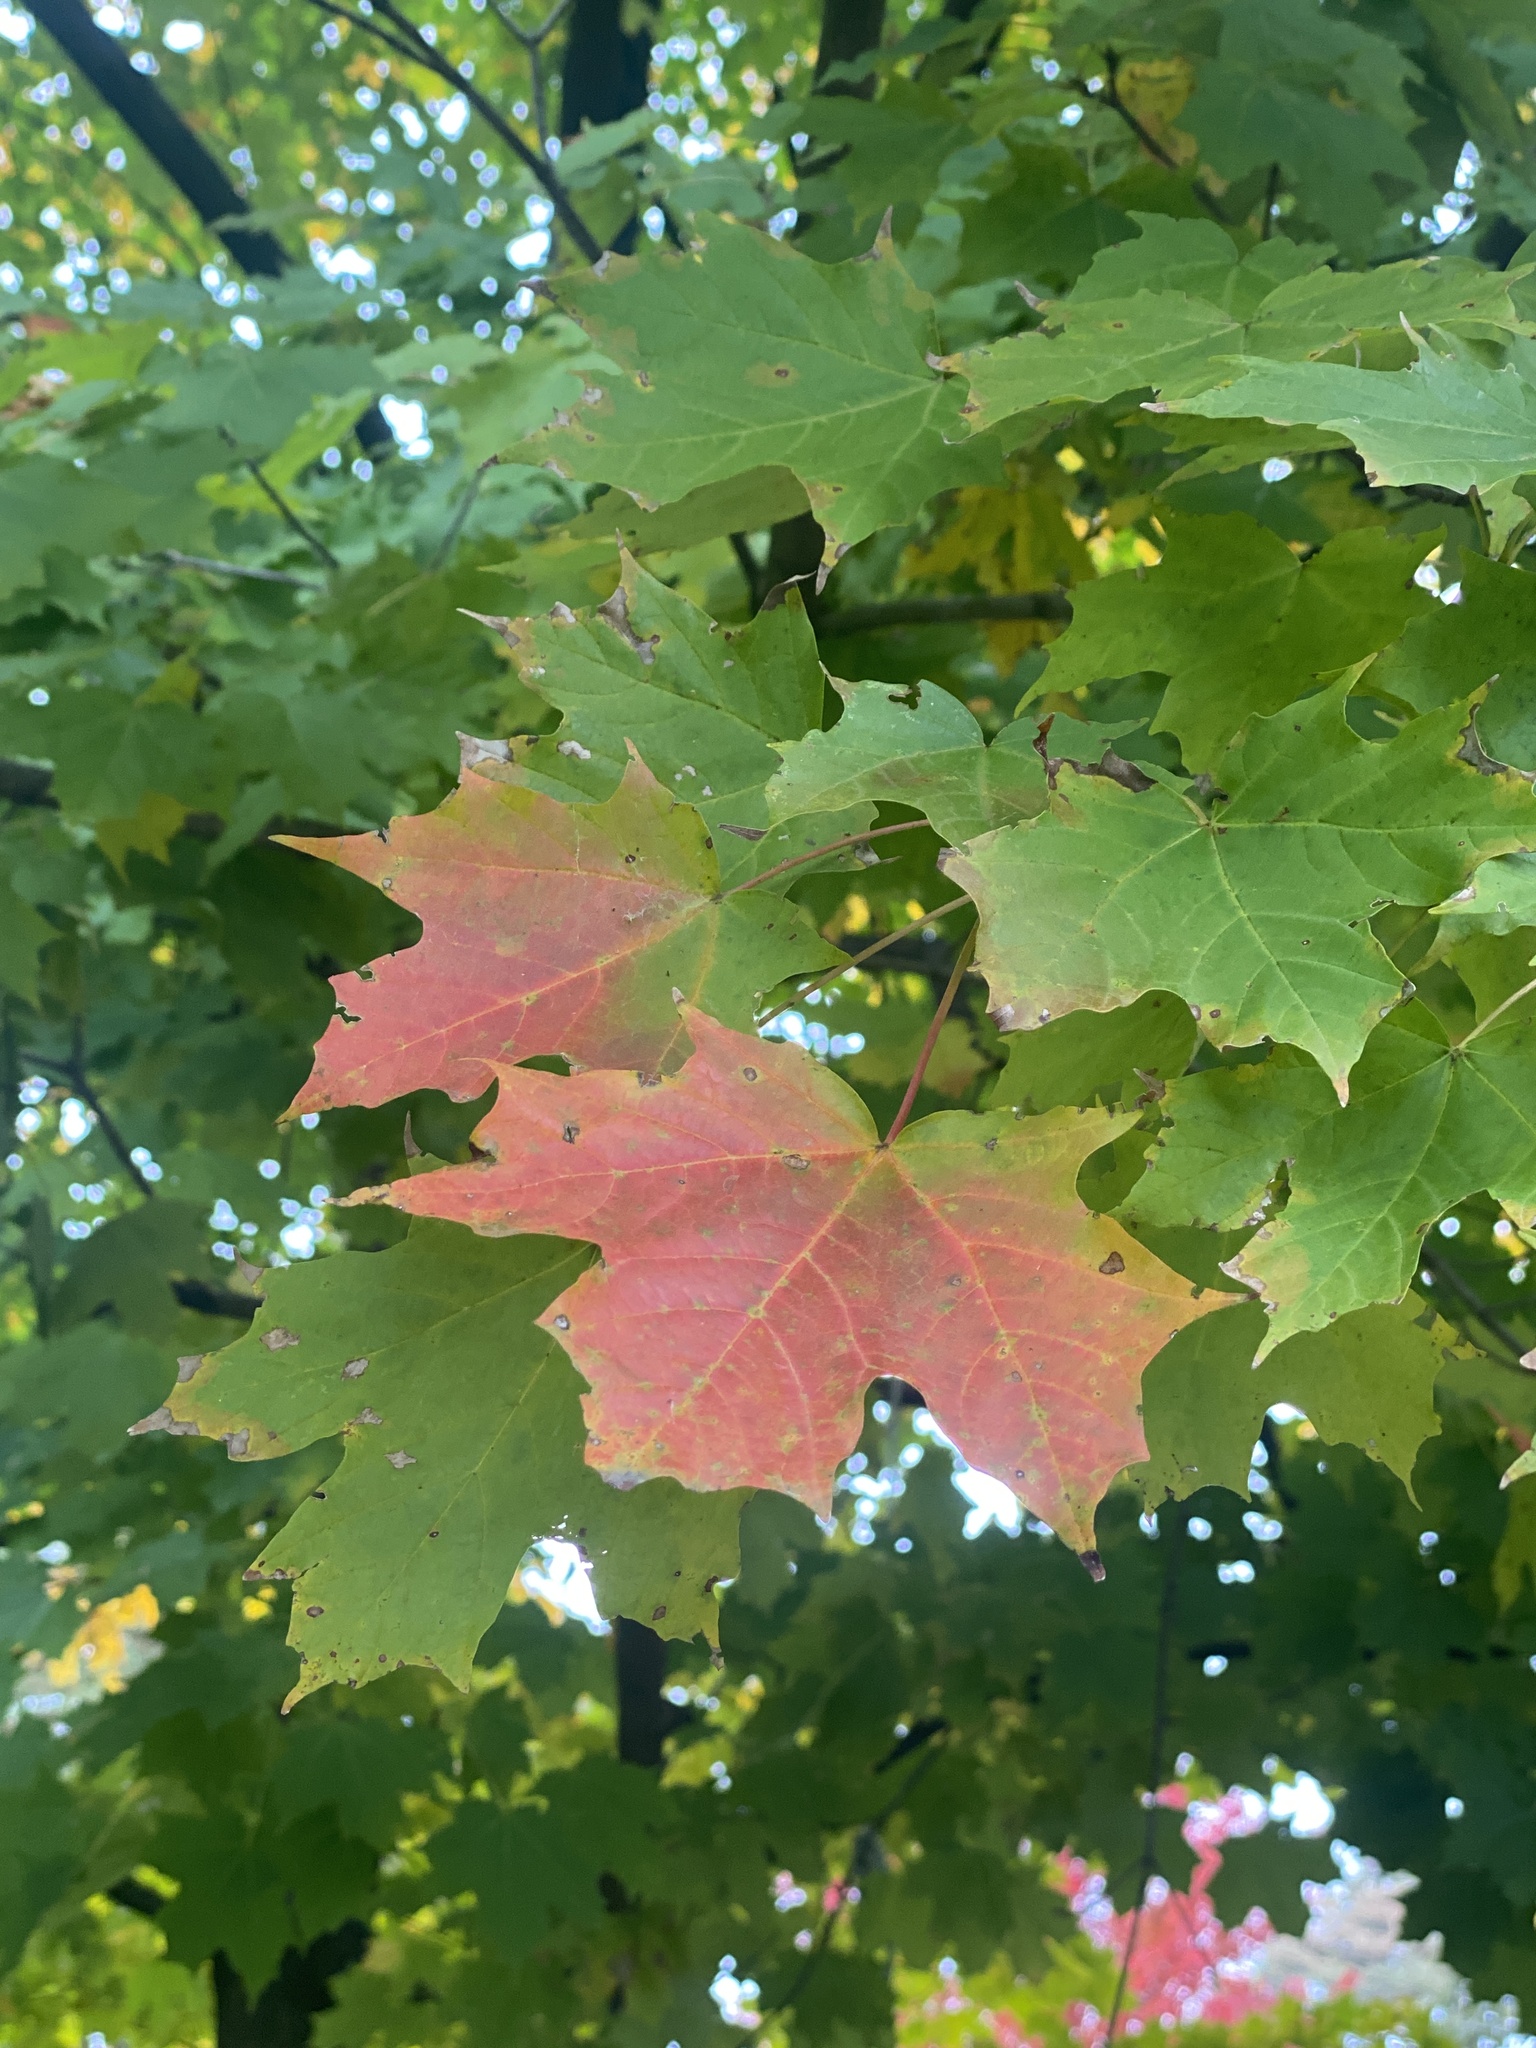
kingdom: Plantae
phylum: Tracheophyta
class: Magnoliopsida
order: Sapindales
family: Sapindaceae
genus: Acer
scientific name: Acer saccharum
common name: Sugar maple
